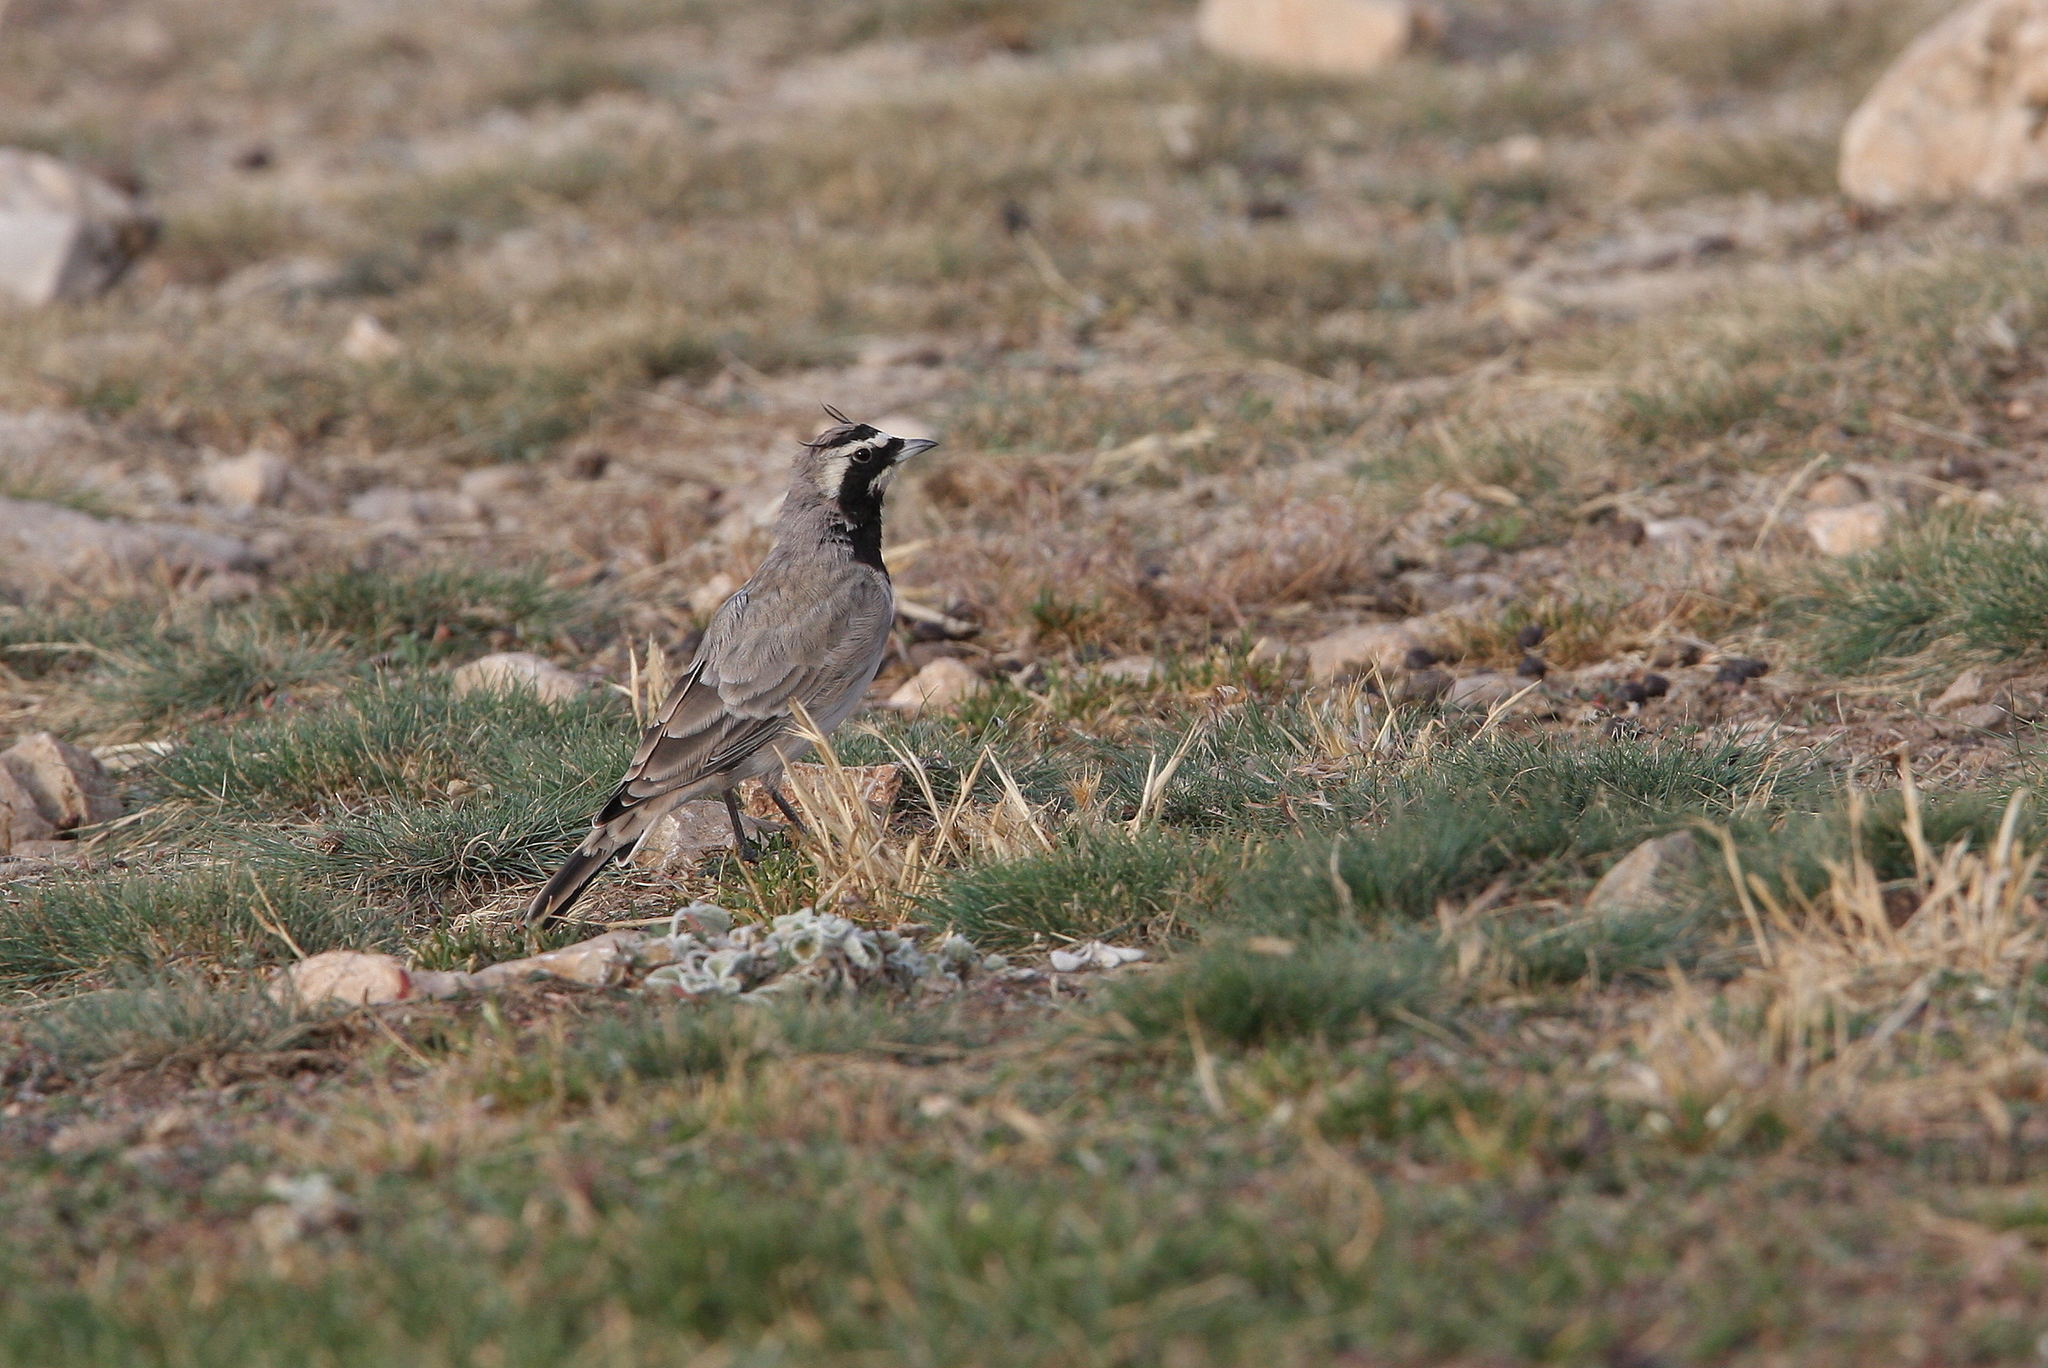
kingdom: Animalia
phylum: Chordata
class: Aves
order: Passeriformes
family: Alaudidae
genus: Eremophila
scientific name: Eremophila alpestris
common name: Horned lark
